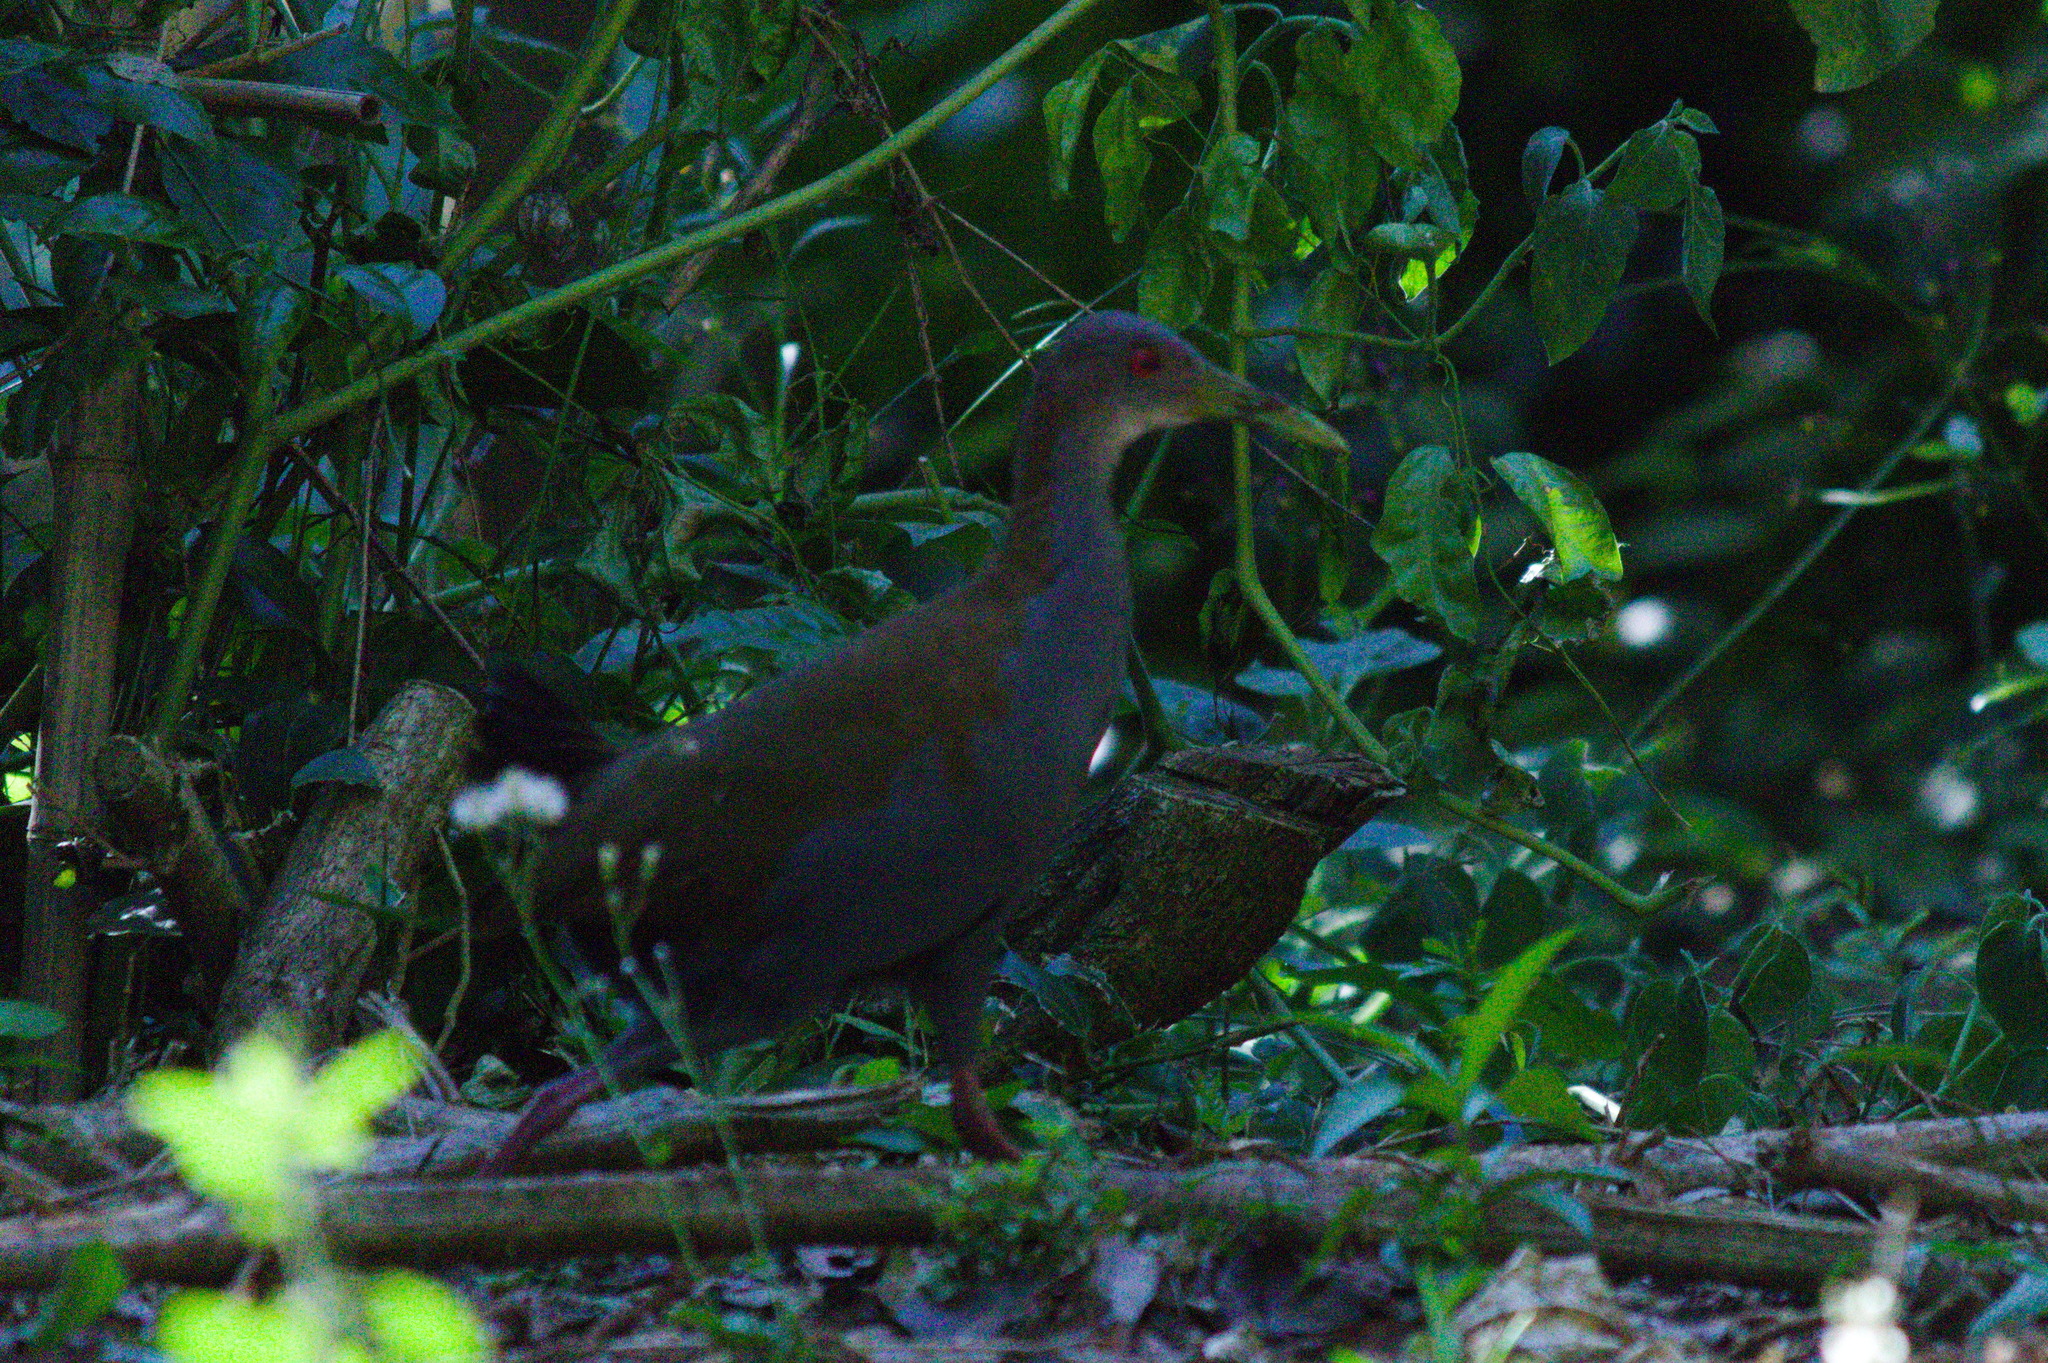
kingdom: Animalia
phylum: Chordata
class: Aves
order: Gruiformes
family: Rallidae
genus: Aramides
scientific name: Aramides saracura
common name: Slaty-breasted wood rail
